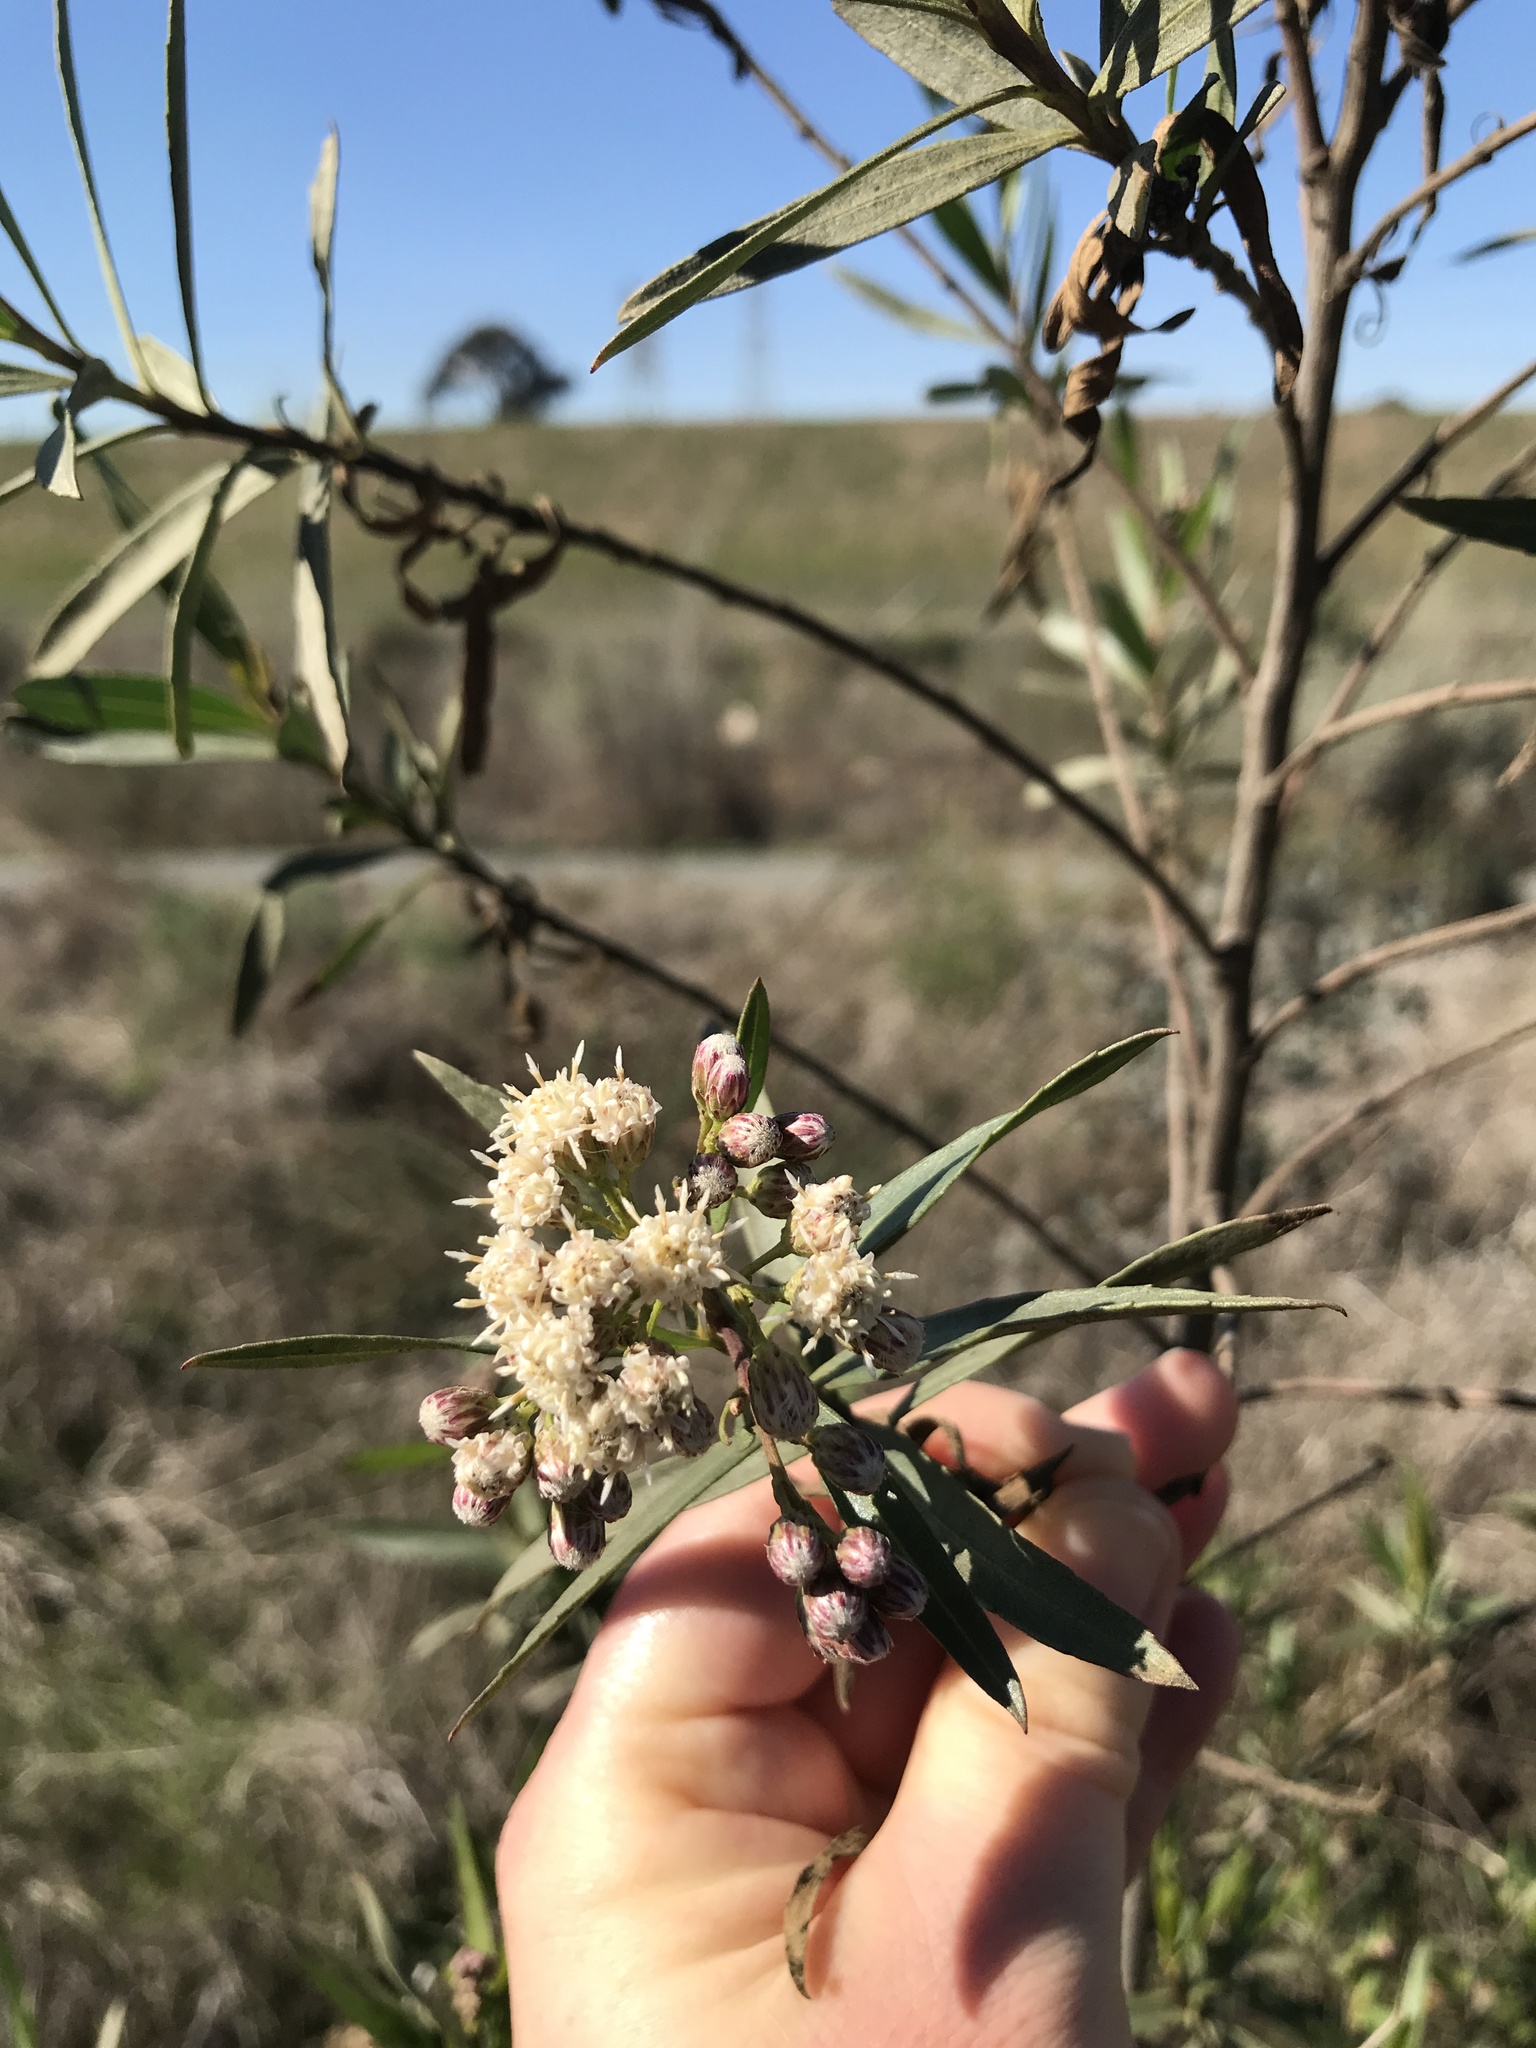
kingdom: Plantae
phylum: Tracheophyta
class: Magnoliopsida
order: Asterales
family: Asteraceae
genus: Baccharis
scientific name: Baccharis salicifolia
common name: Sticky baccharis
